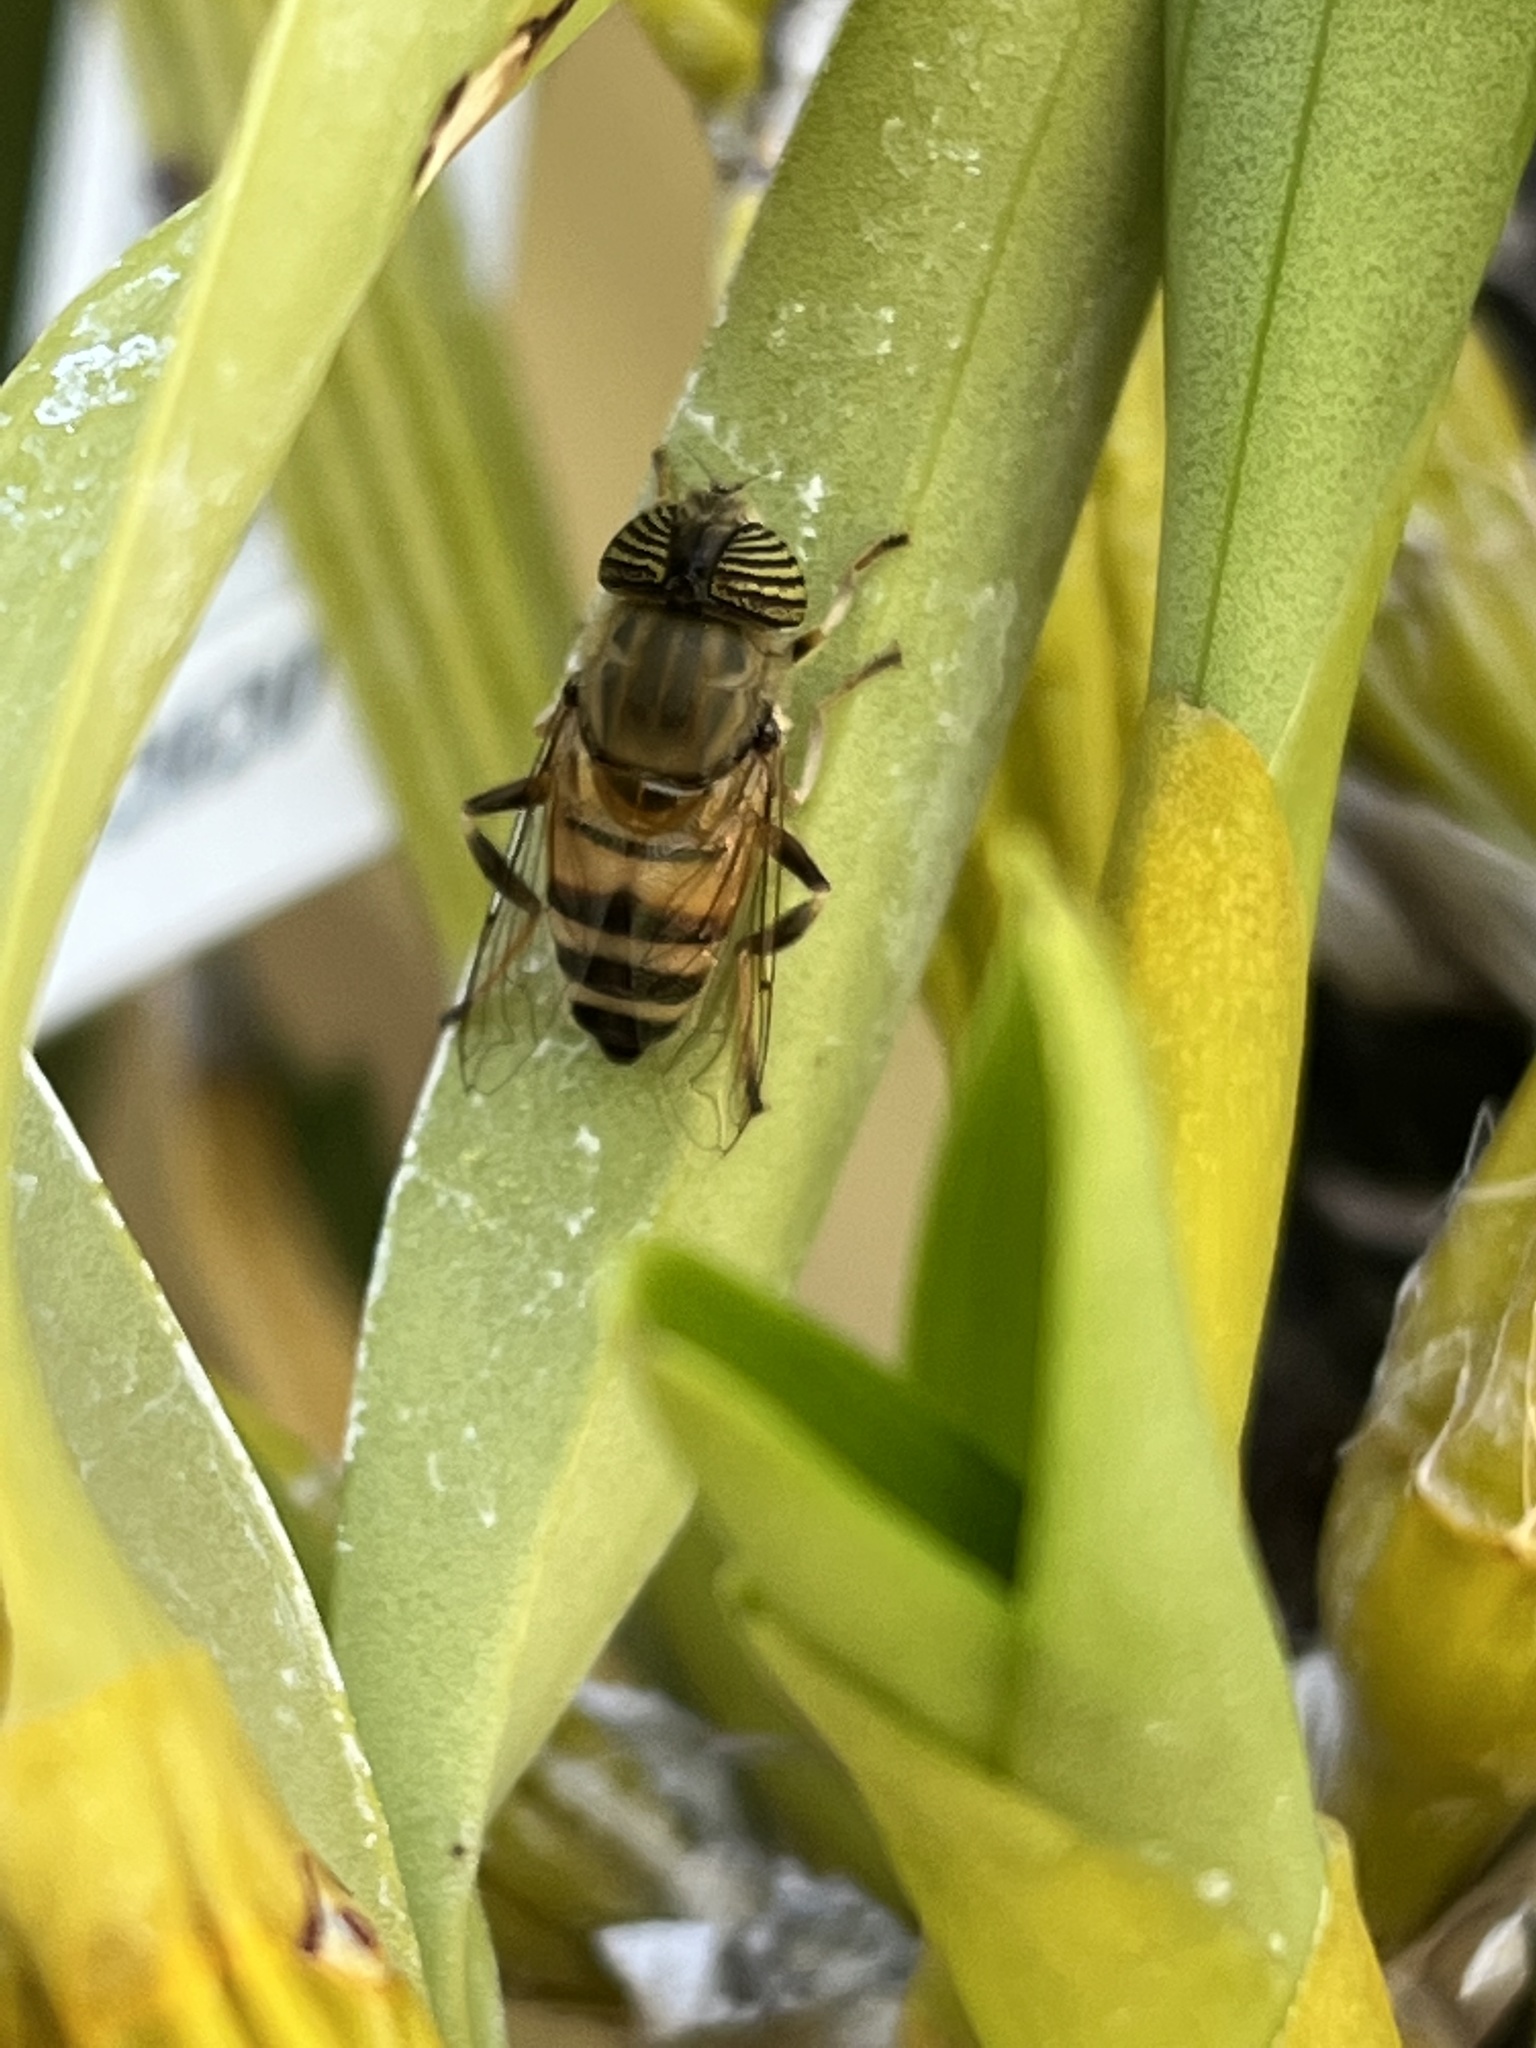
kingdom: Animalia
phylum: Arthropoda
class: Insecta
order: Diptera
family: Syrphidae
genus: Eristalinus
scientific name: Eristalinus taeniops
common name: Syrphid fly
